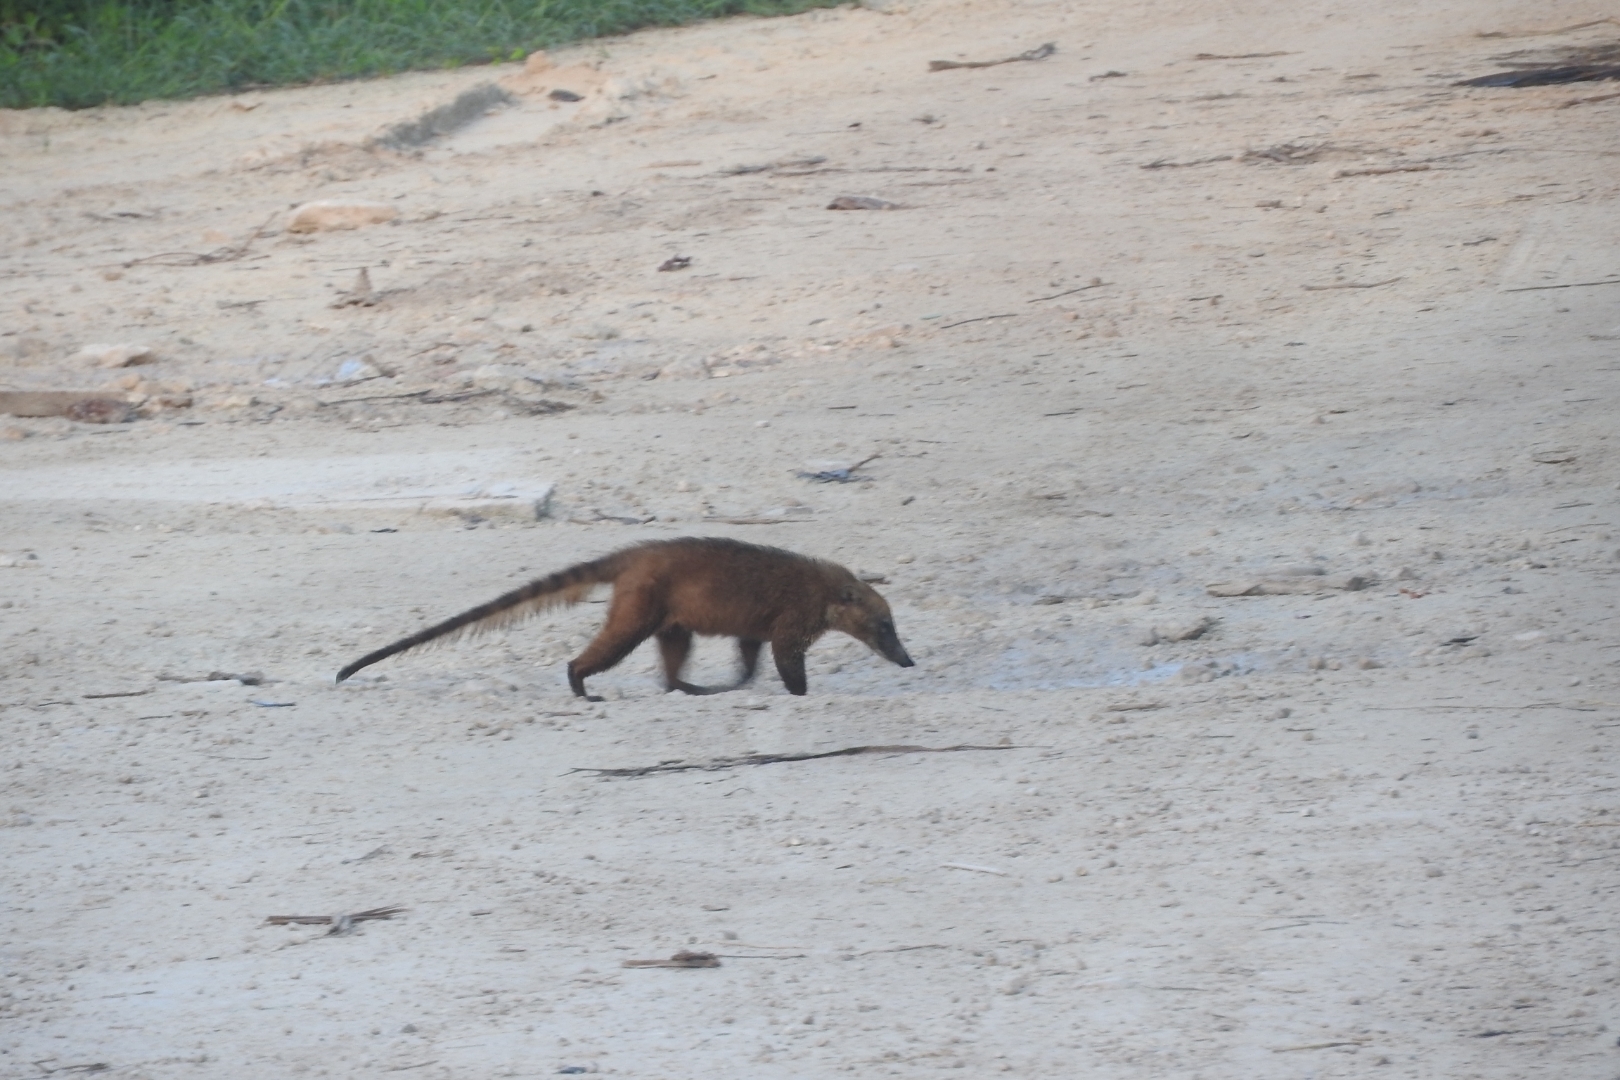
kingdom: Animalia
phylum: Chordata
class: Mammalia
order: Carnivora
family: Procyonidae
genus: Nasua
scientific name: Nasua narica
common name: White-nosed coati
